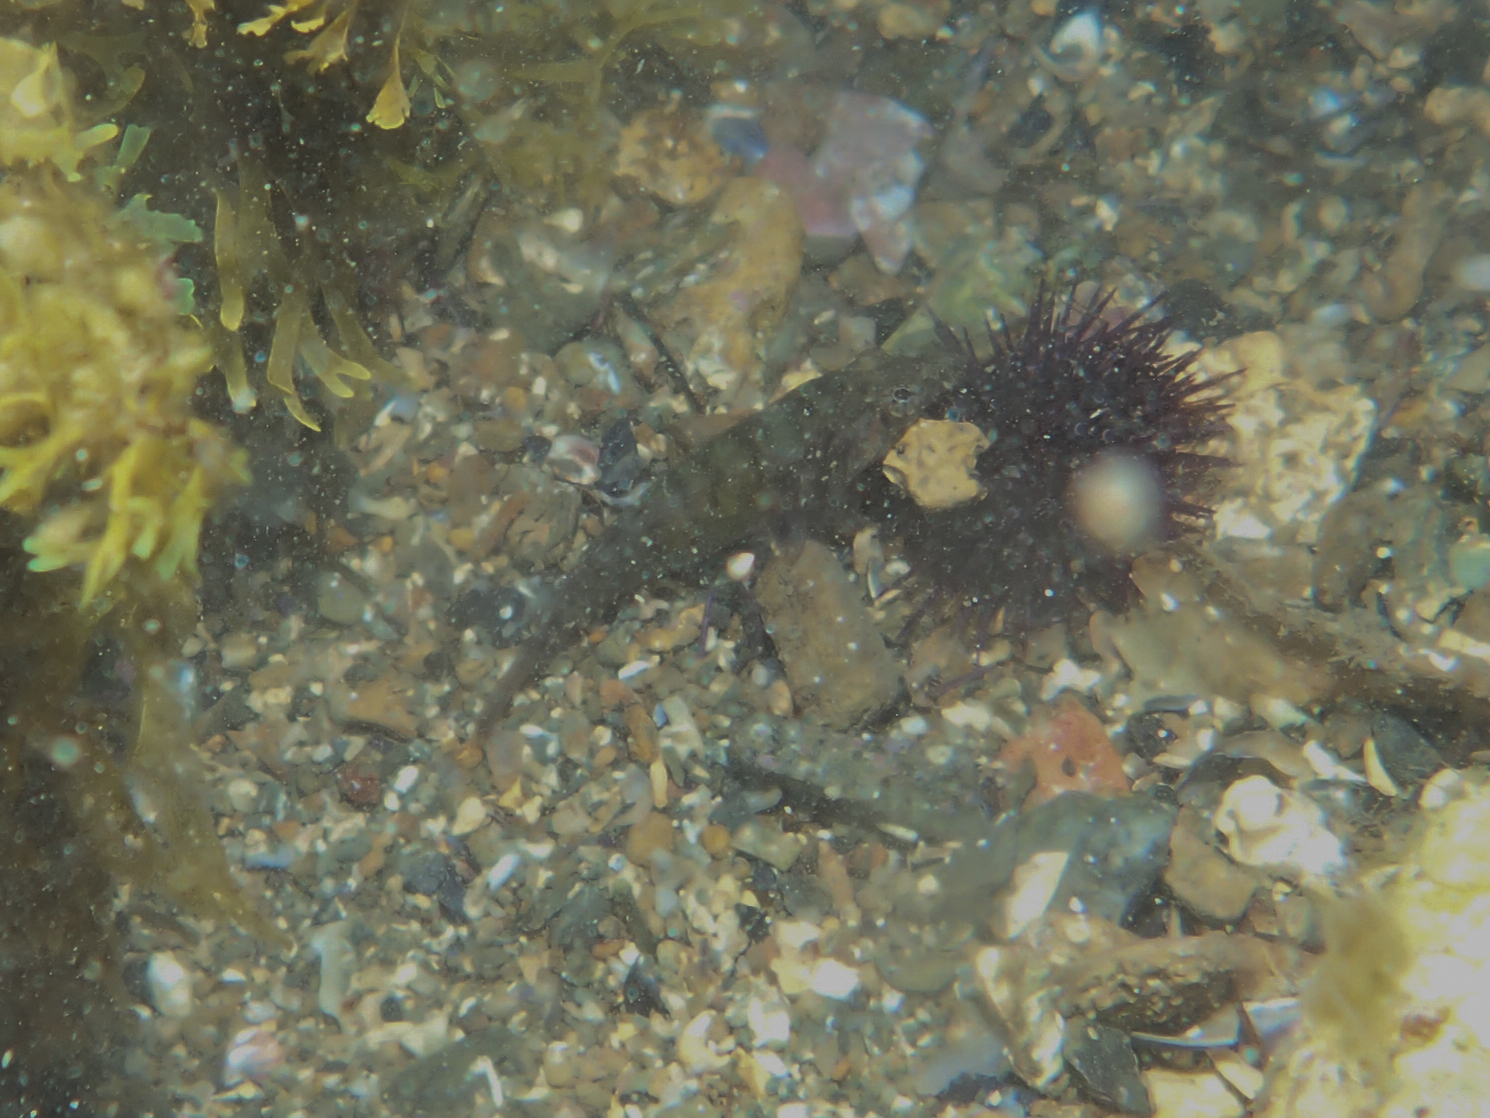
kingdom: Animalia
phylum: Chordata
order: Gobiesociformes
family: Gobiesocidae
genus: Lepadogaster
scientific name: Lepadogaster candolii
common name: Connemarra clingfish
